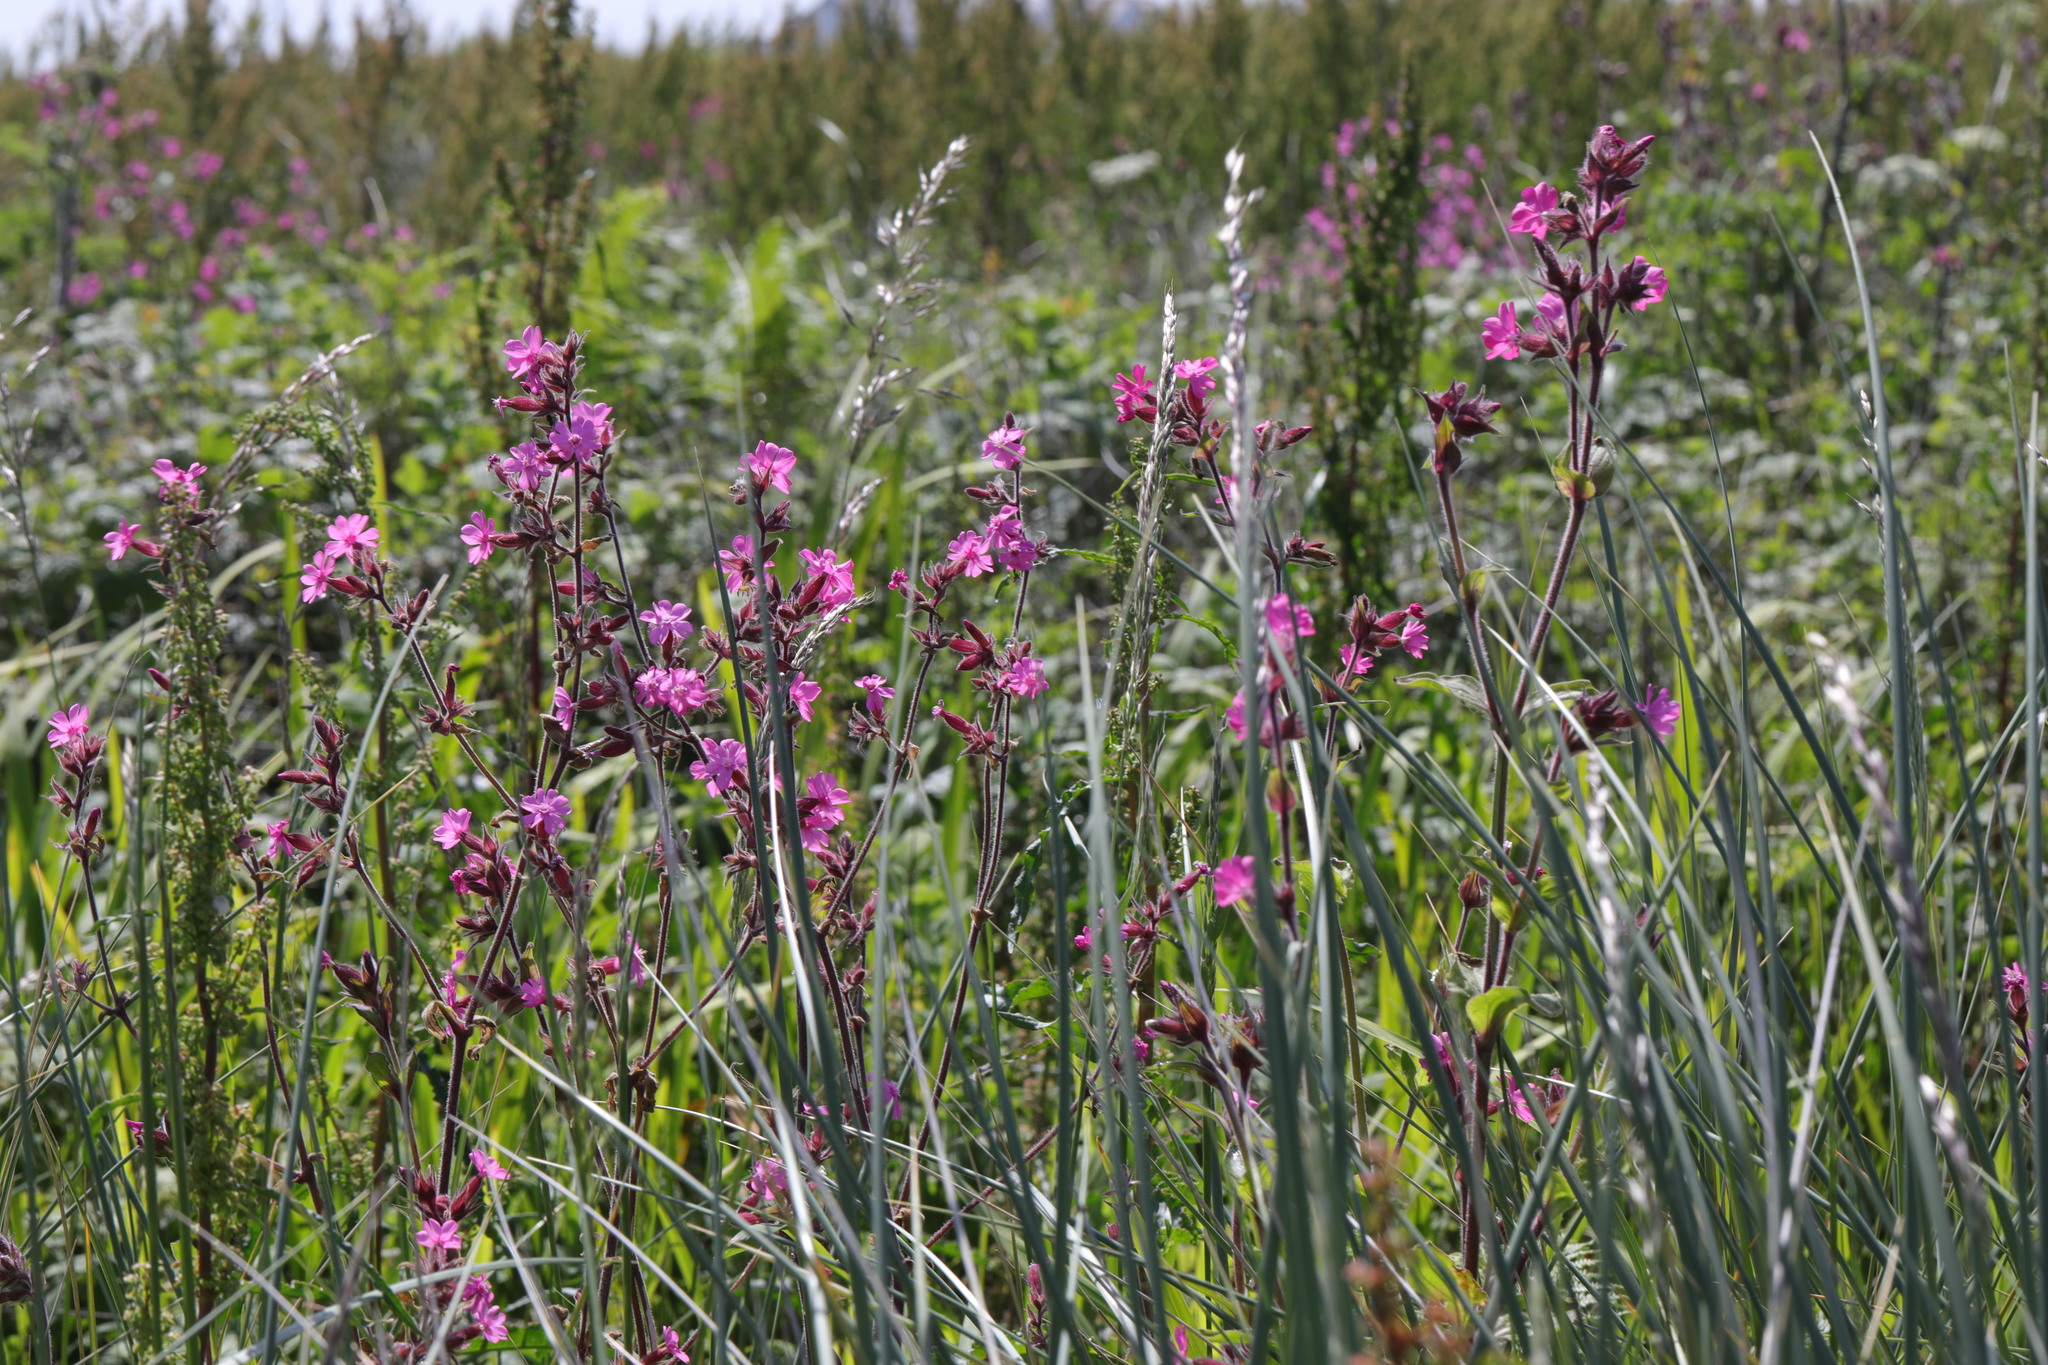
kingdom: Plantae
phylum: Tracheophyta
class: Magnoliopsida
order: Caryophyllales
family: Caryophyllaceae
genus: Silene
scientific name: Silene dioica
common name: Red campion
